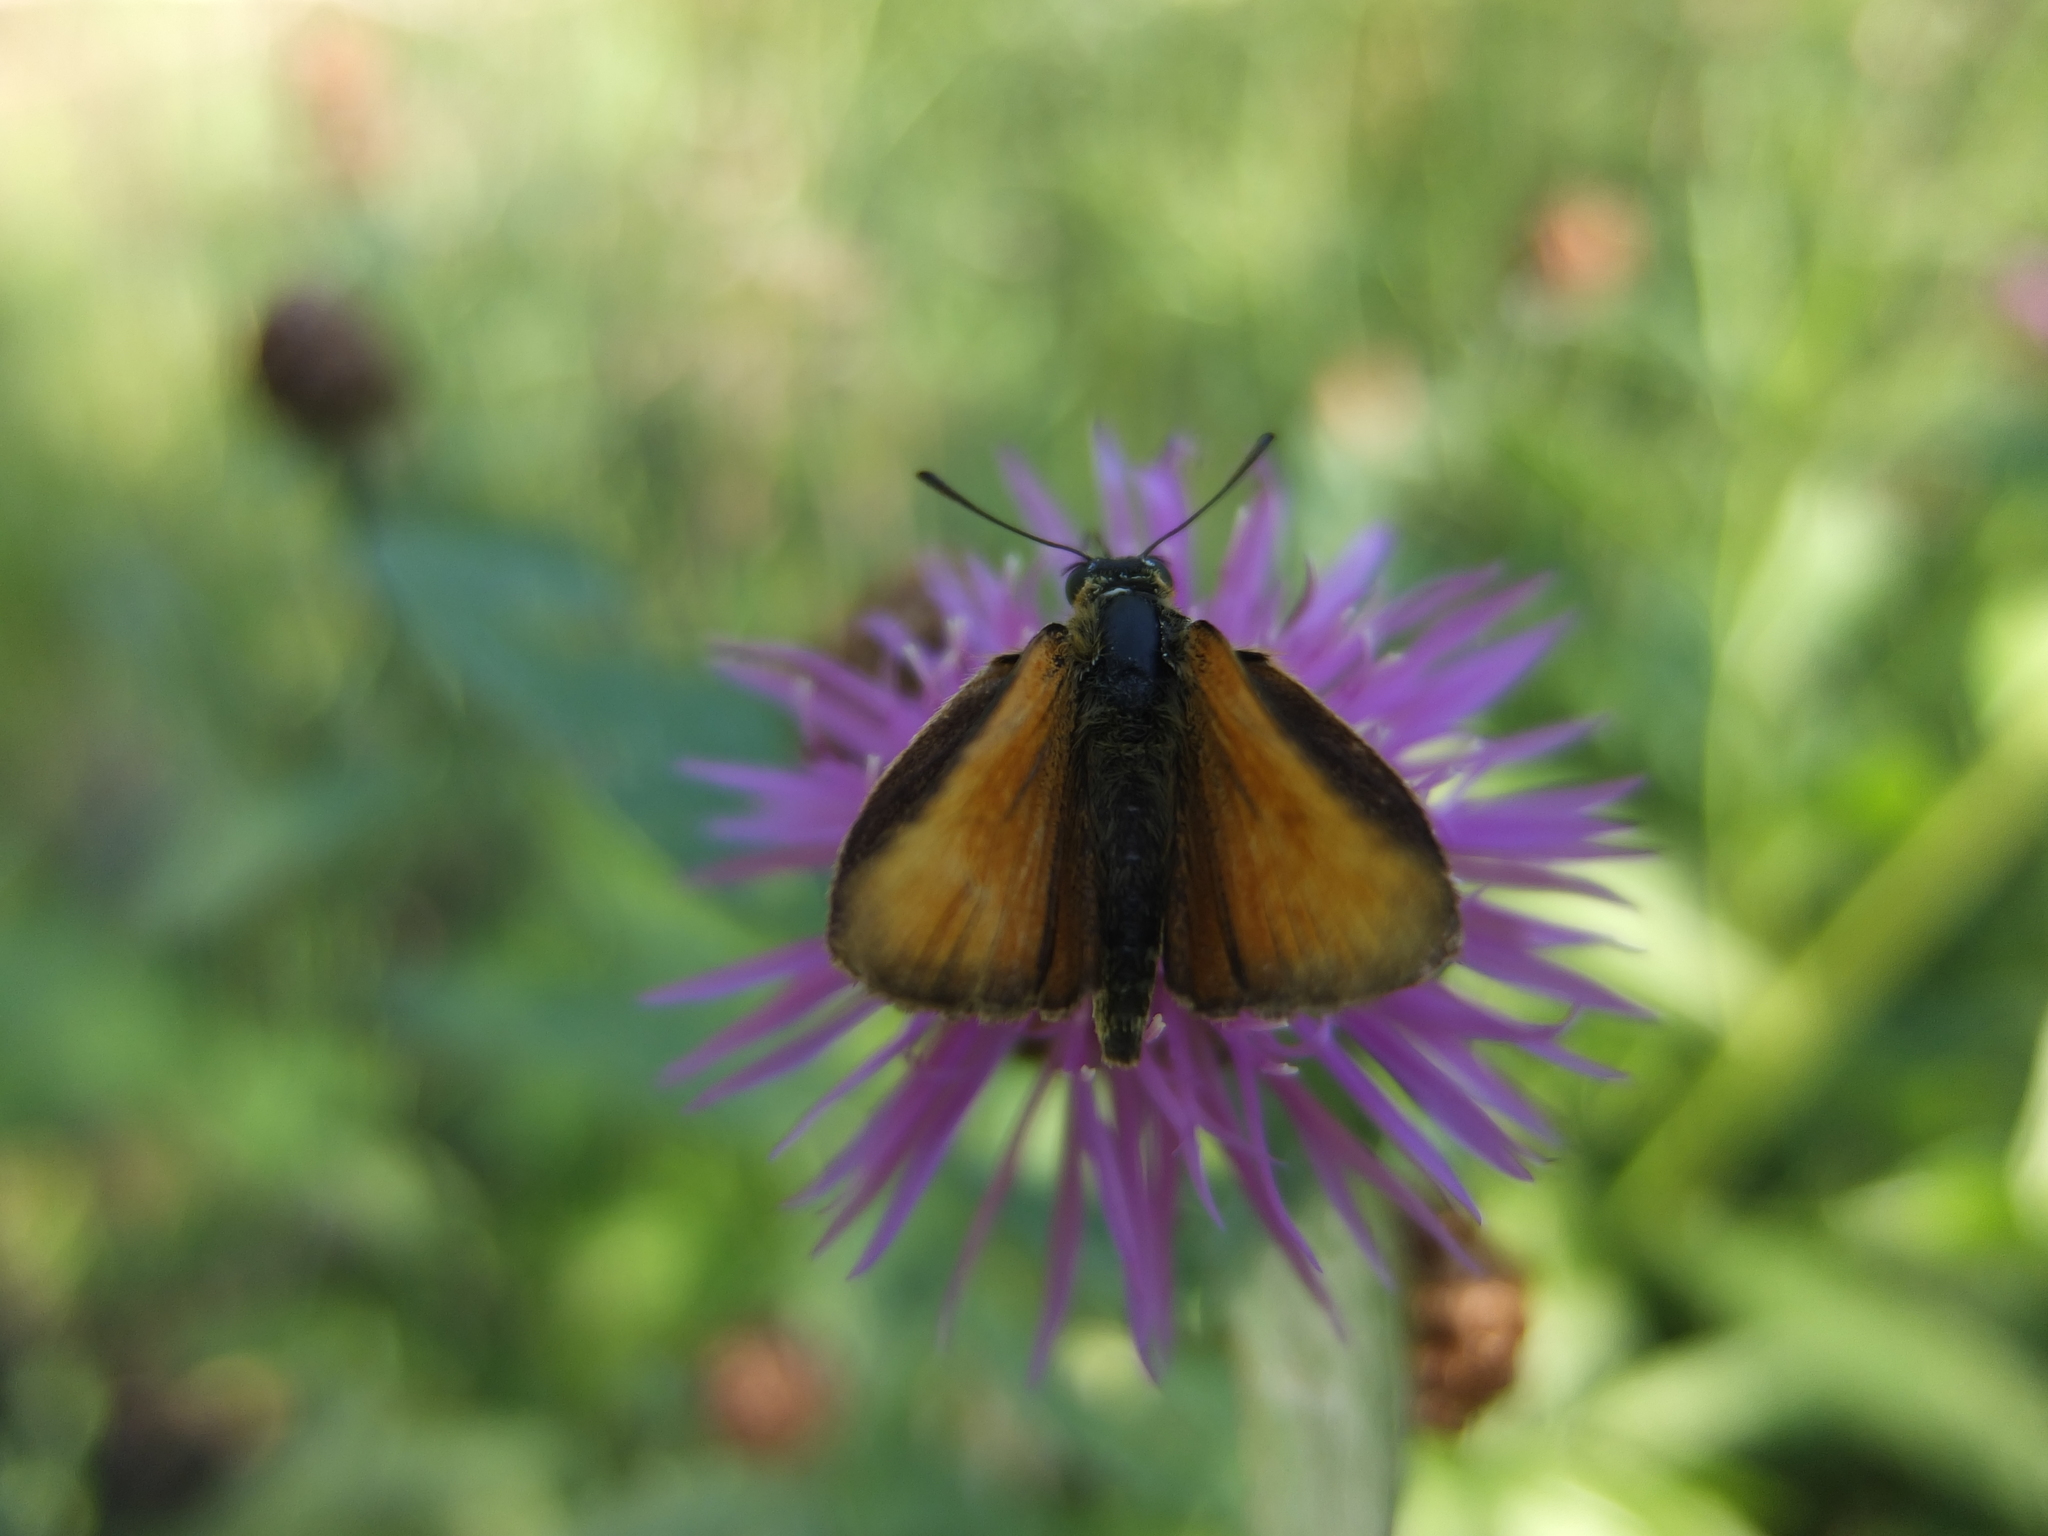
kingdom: Animalia
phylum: Arthropoda
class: Insecta
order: Lepidoptera
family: Hesperiidae
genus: Thymelicus
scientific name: Thymelicus lineola
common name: Essex skipper
